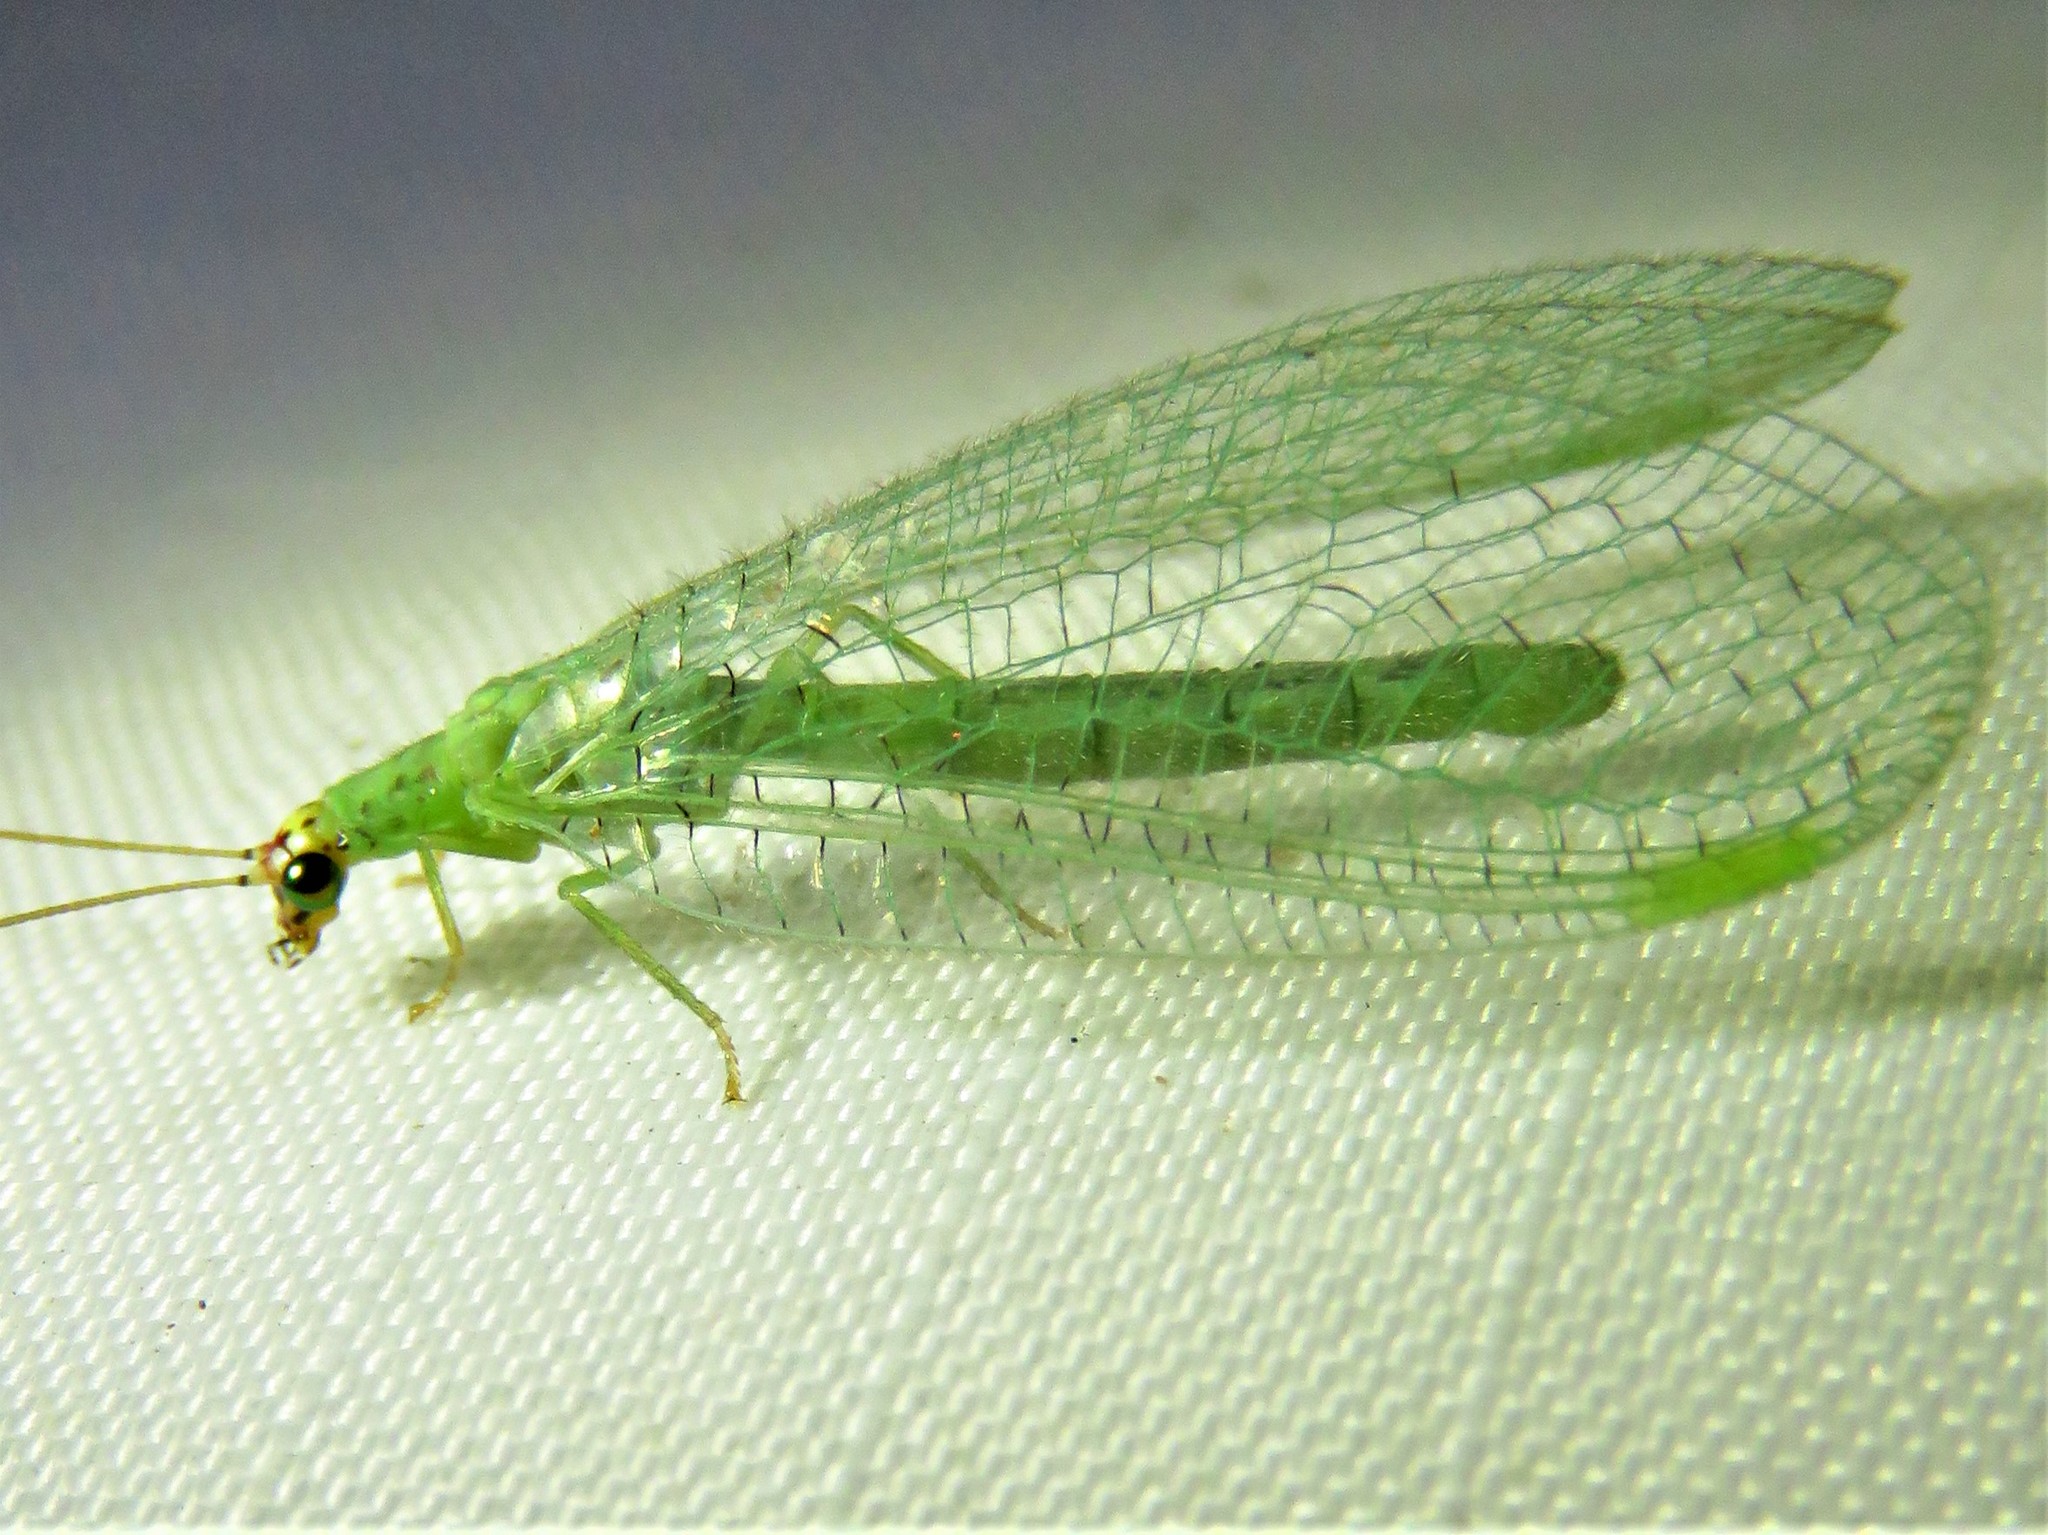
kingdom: Animalia
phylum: Arthropoda
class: Insecta
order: Neuroptera
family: Chrysopidae
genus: Chrysopa
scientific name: Chrysopa oculata
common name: Golden-eyed lacewing
